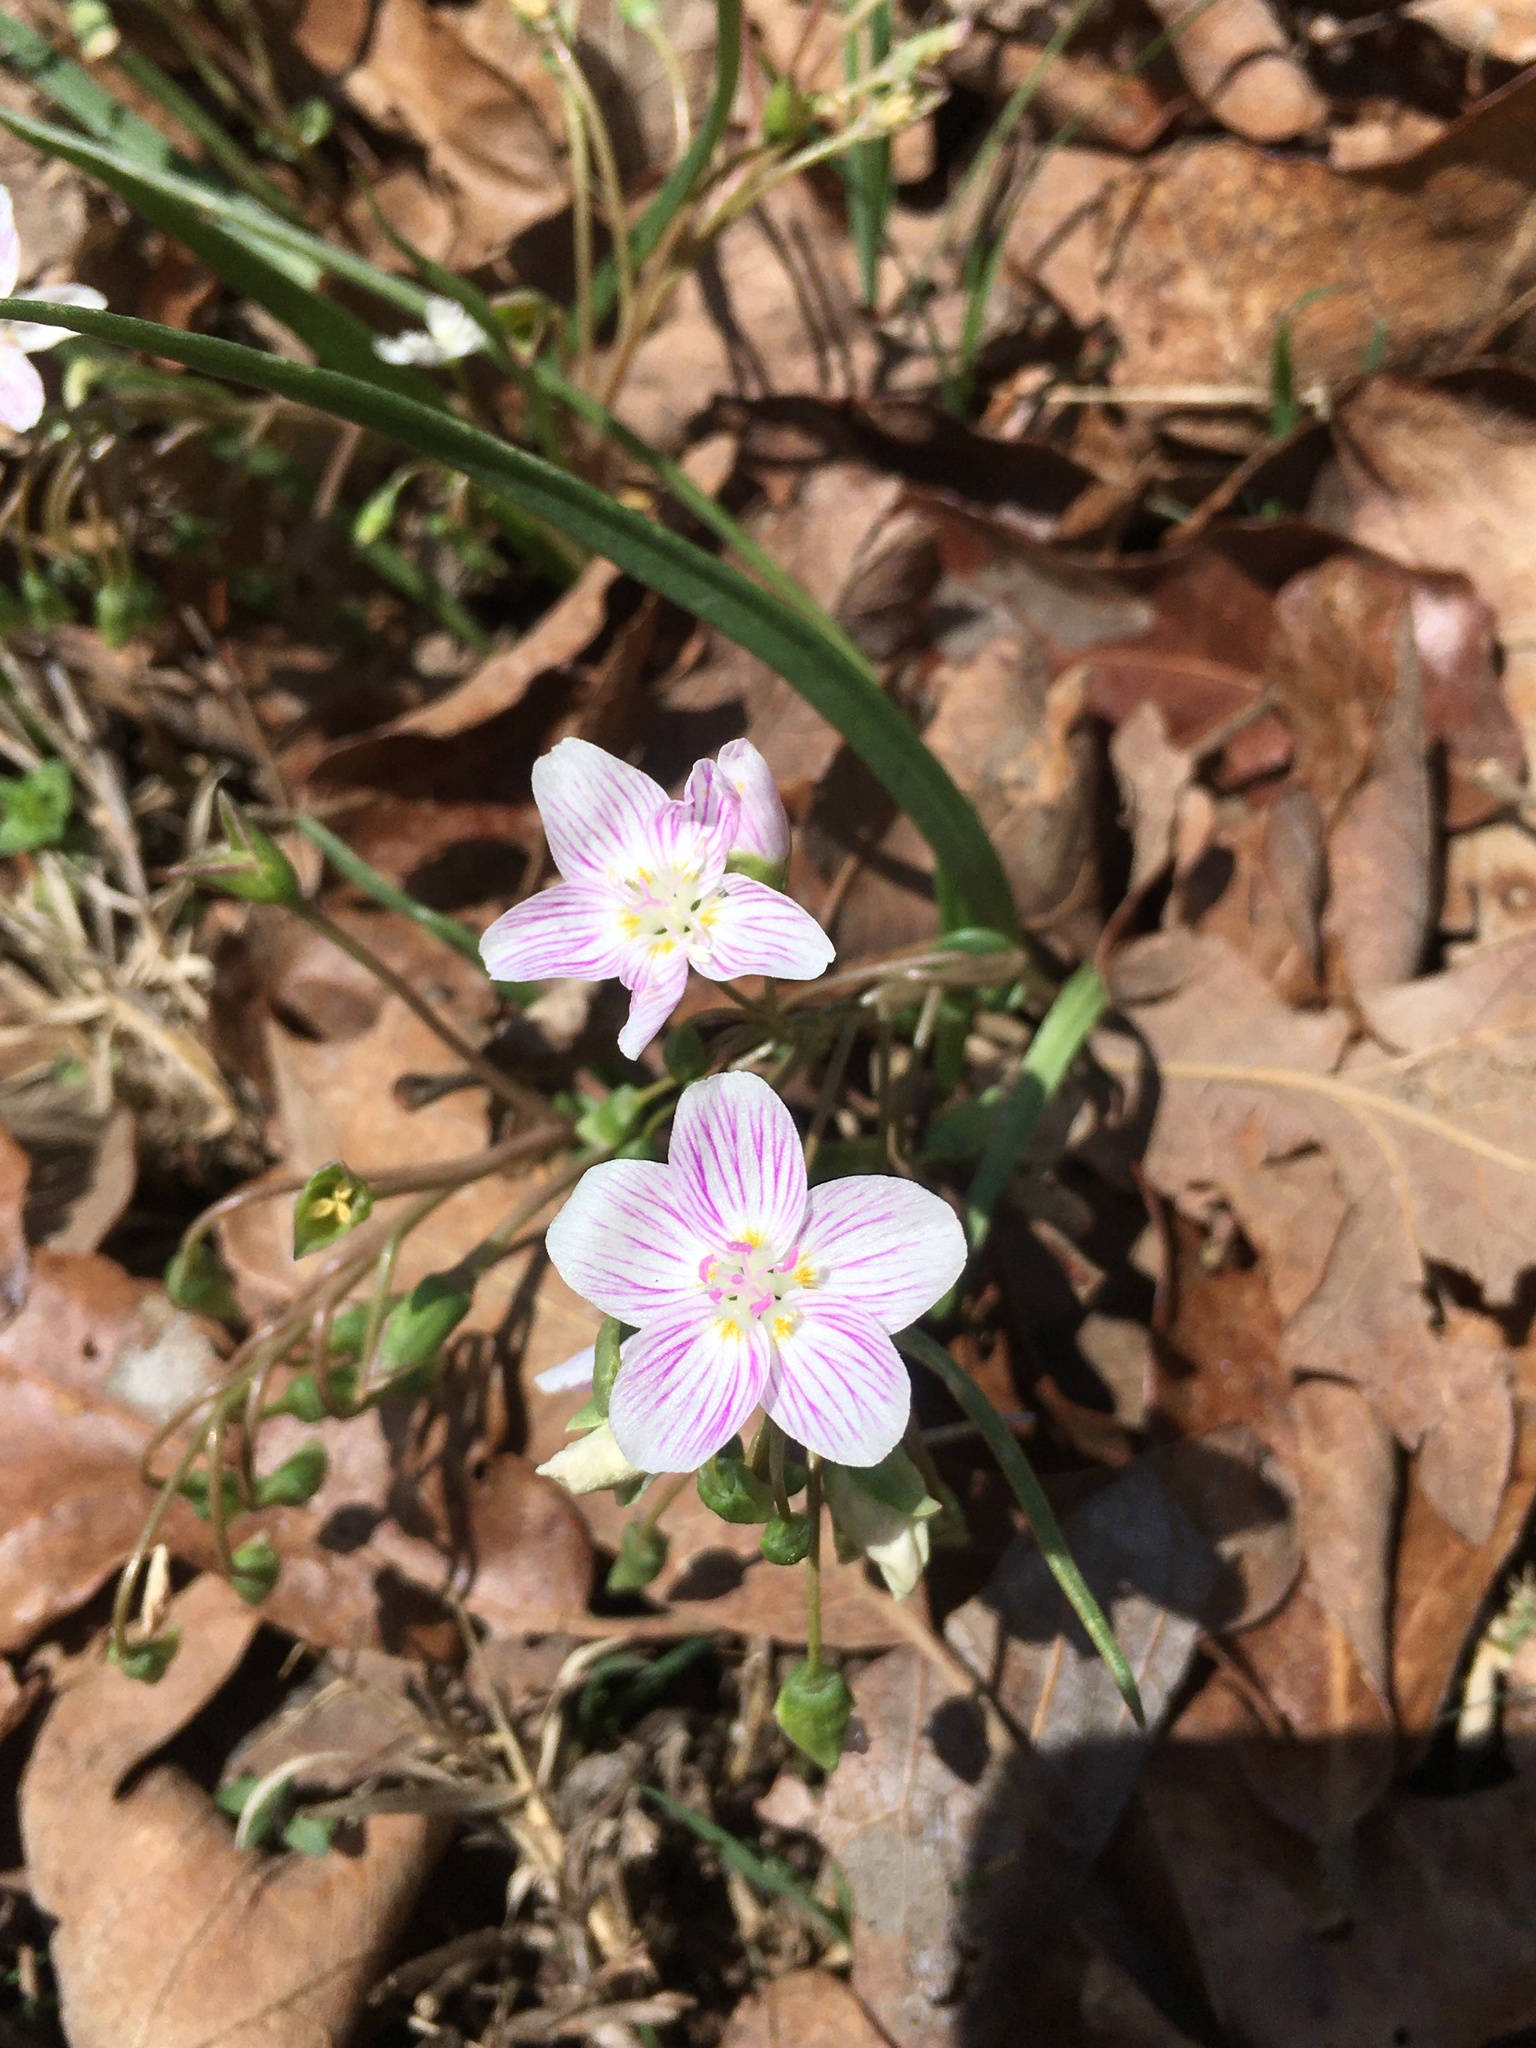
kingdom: Plantae
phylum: Tracheophyta
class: Magnoliopsida
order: Caryophyllales
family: Montiaceae
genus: Claytonia
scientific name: Claytonia virginica
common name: Virginia springbeauty
